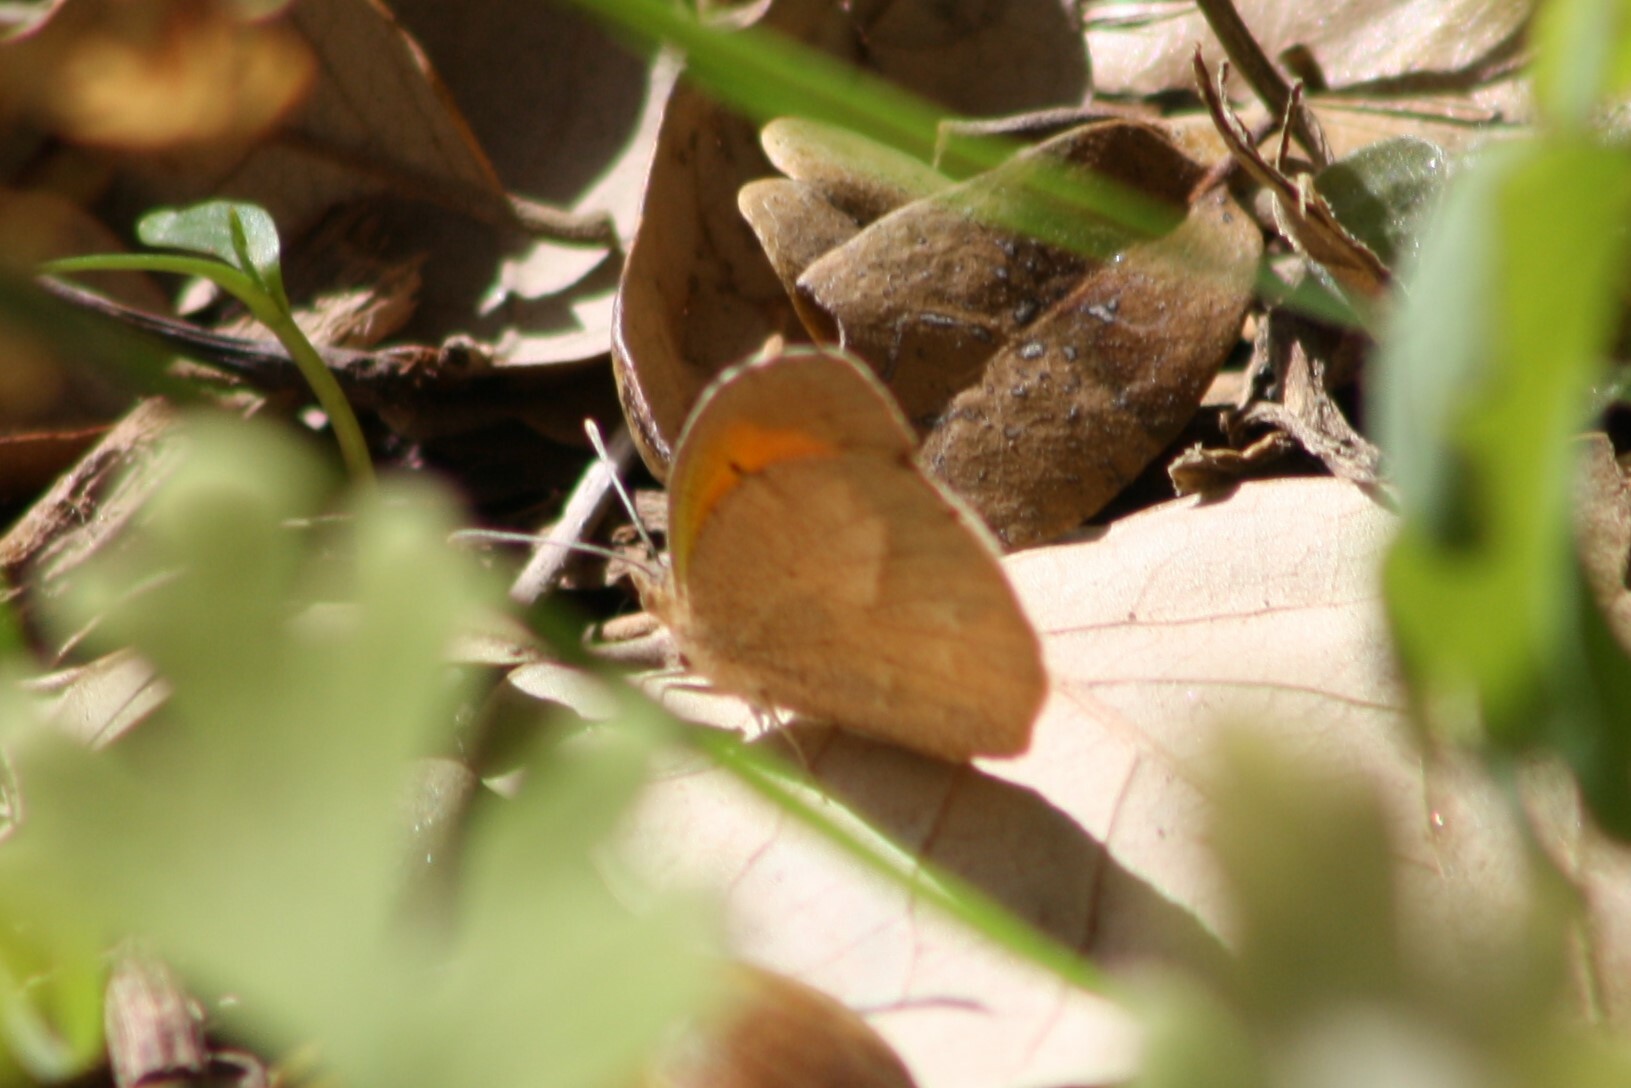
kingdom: Animalia
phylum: Arthropoda
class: Insecta
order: Lepidoptera
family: Pieridae
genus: Abaeis
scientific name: Abaeis nicippe
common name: Sleepy orange
